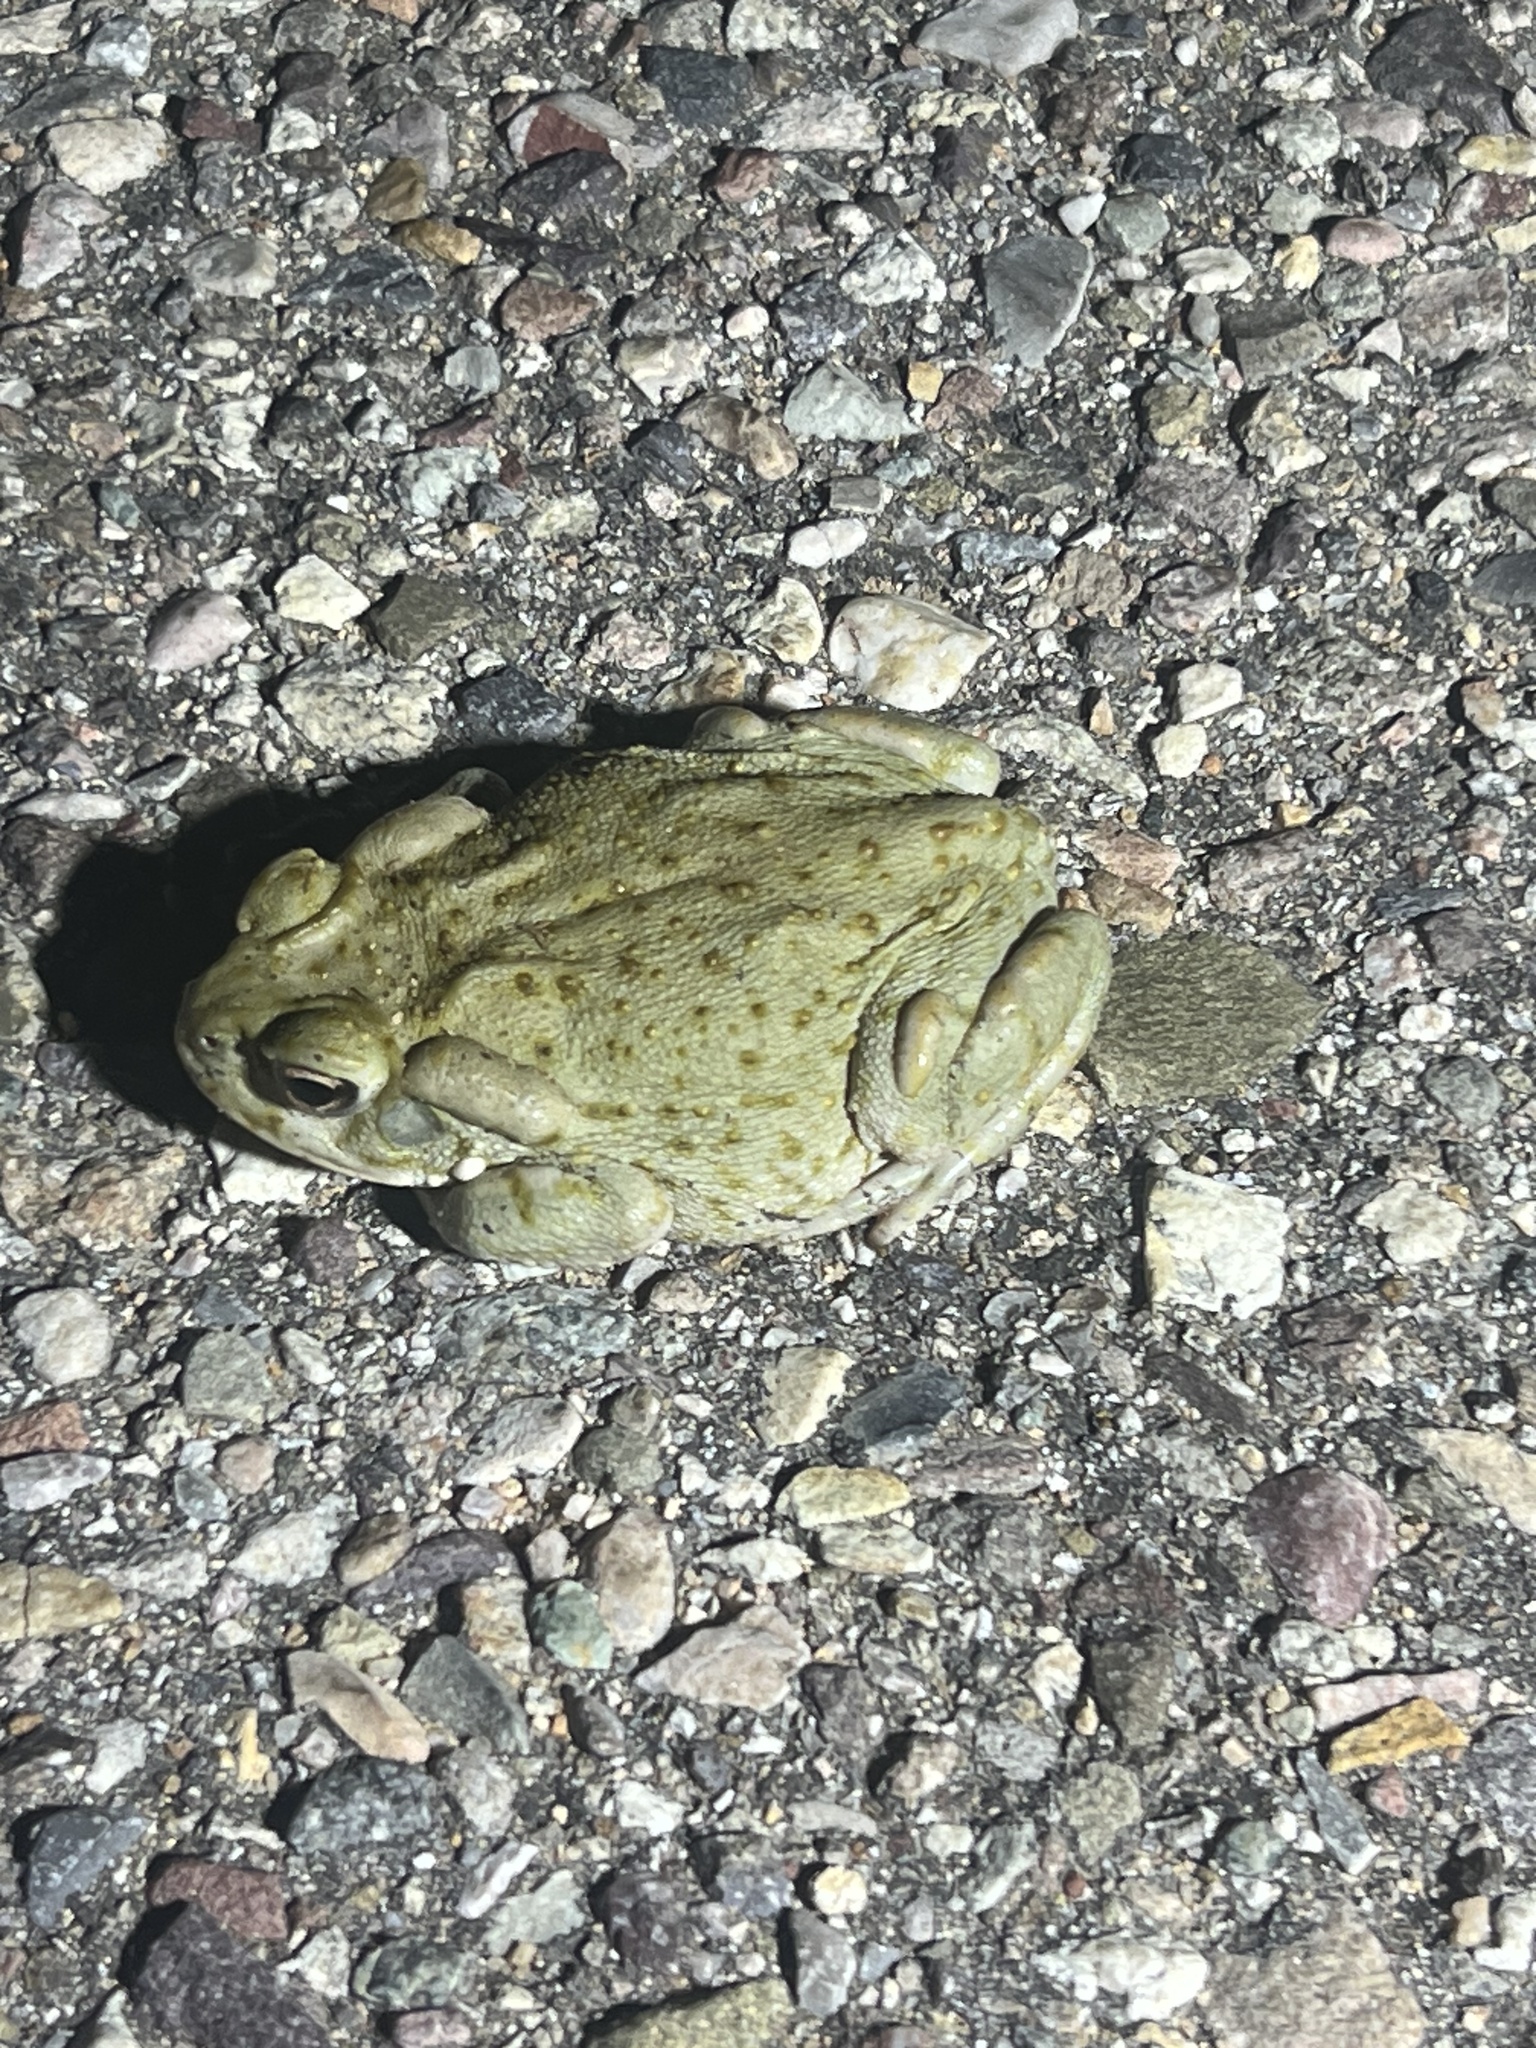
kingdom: Animalia
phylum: Chordata
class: Amphibia
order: Anura
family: Bufonidae
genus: Incilius
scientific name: Incilius alvarius
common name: Sonoran desert toad
